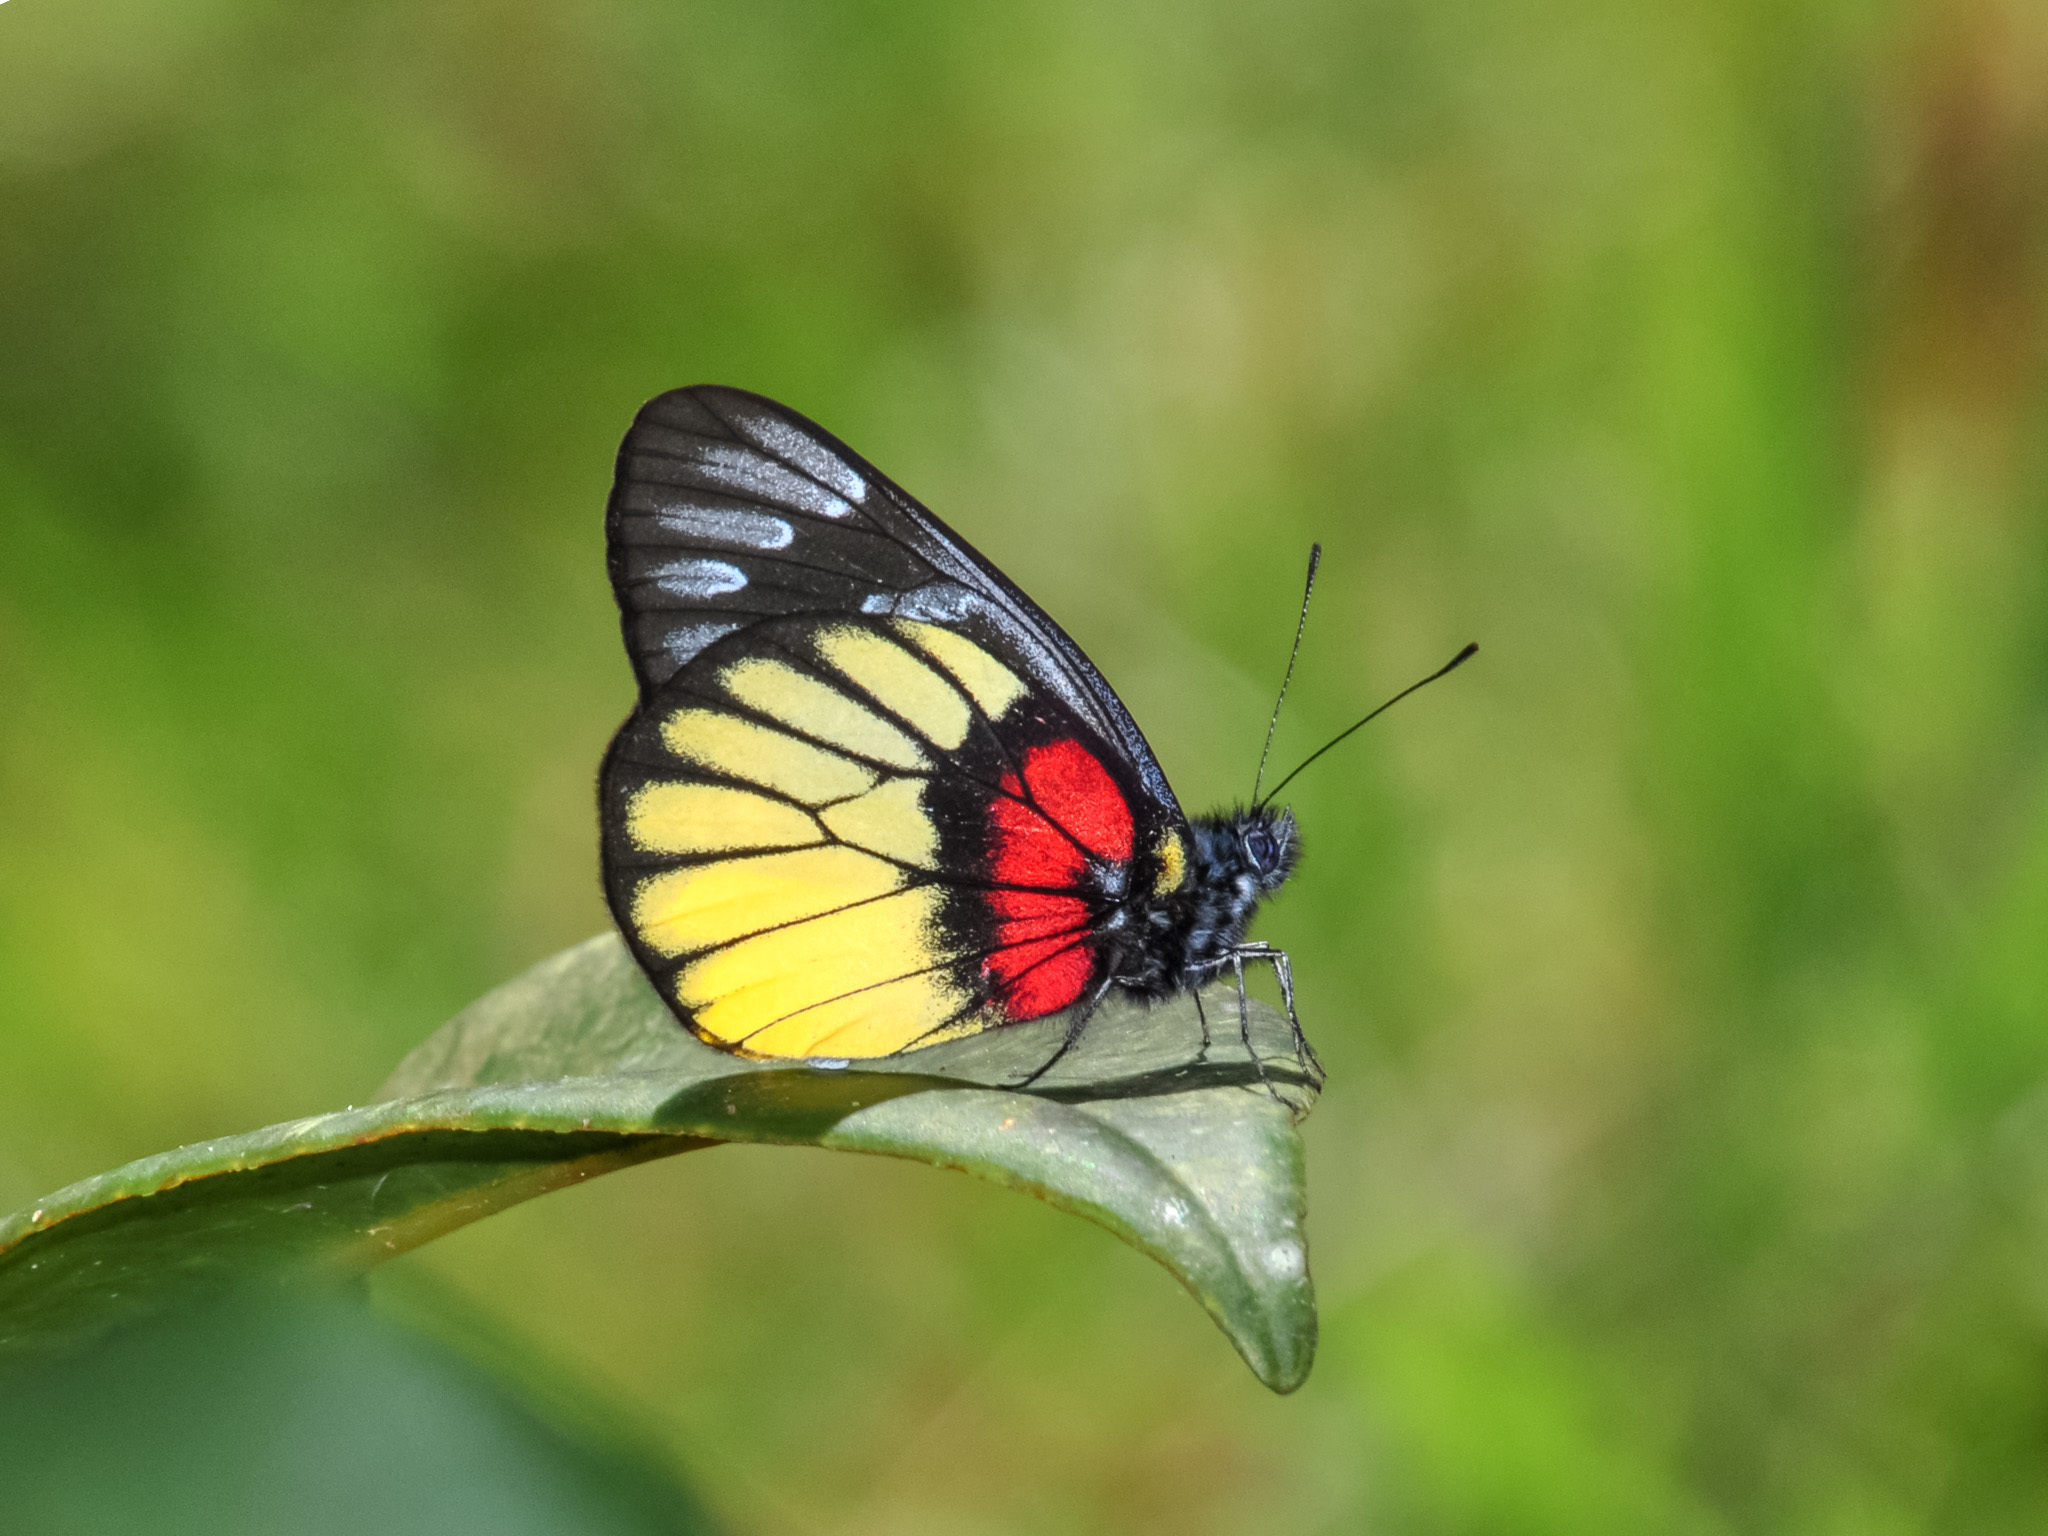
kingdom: Animalia
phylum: Arthropoda
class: Insecta
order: Lepidoptera
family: Pieridae
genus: Delias
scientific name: Delias ninus
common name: Malayan jezebel
